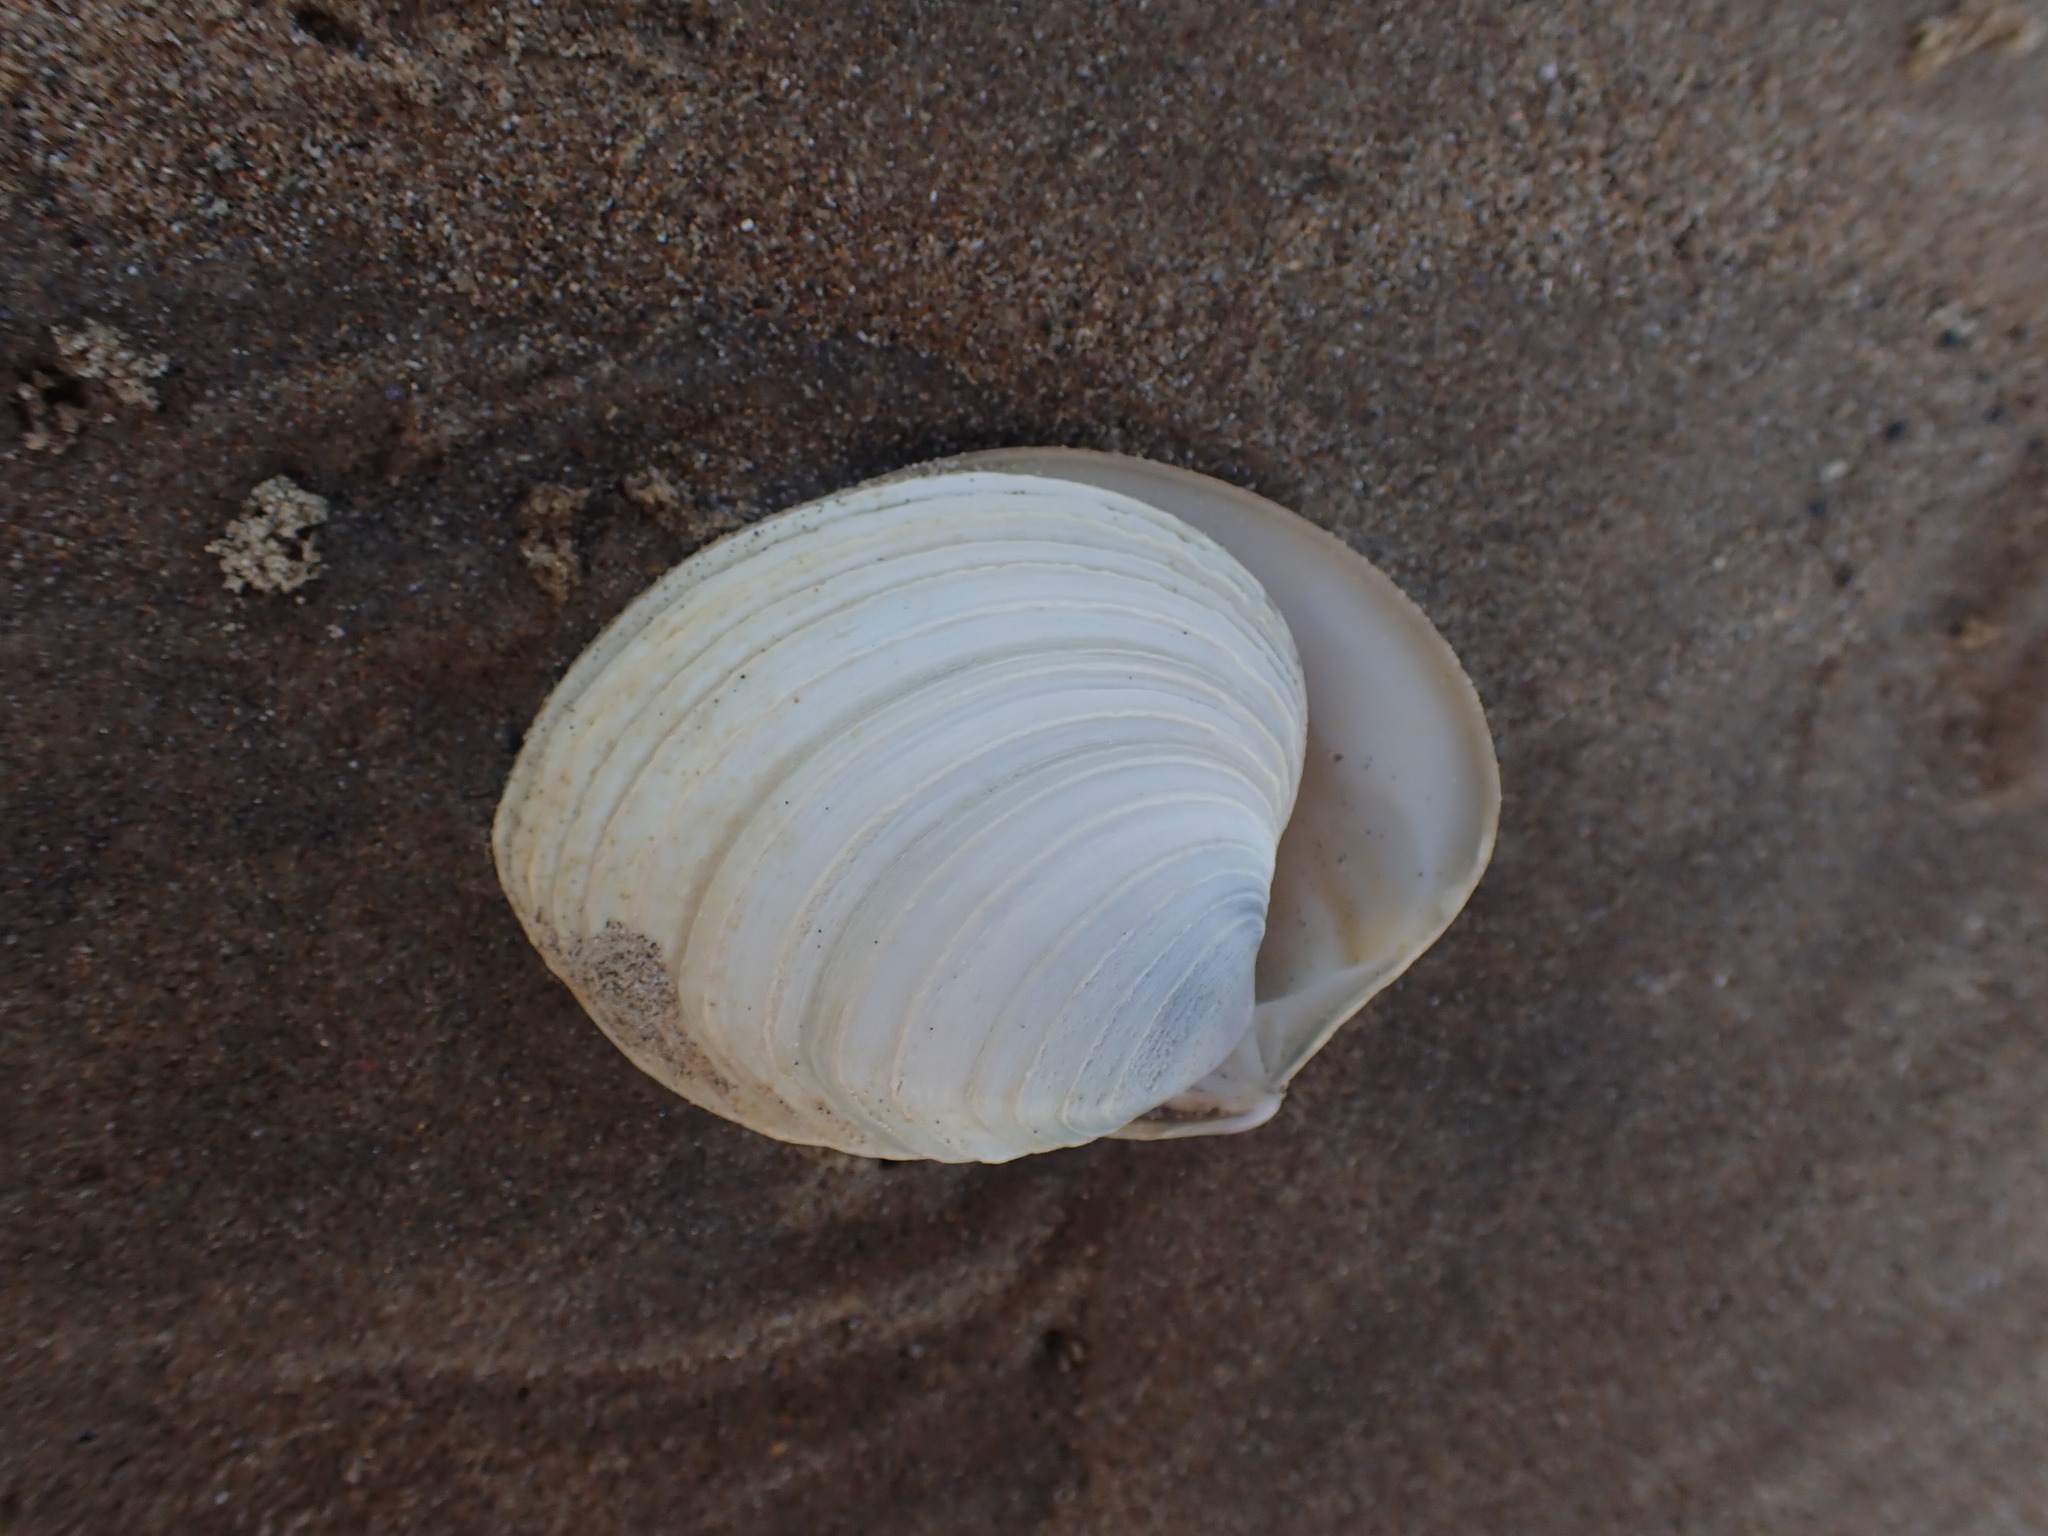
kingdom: Animalia
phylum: Mollusca
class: Bivalvia
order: Venerida
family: Veneridae
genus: Bassina
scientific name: Bassina yatei
